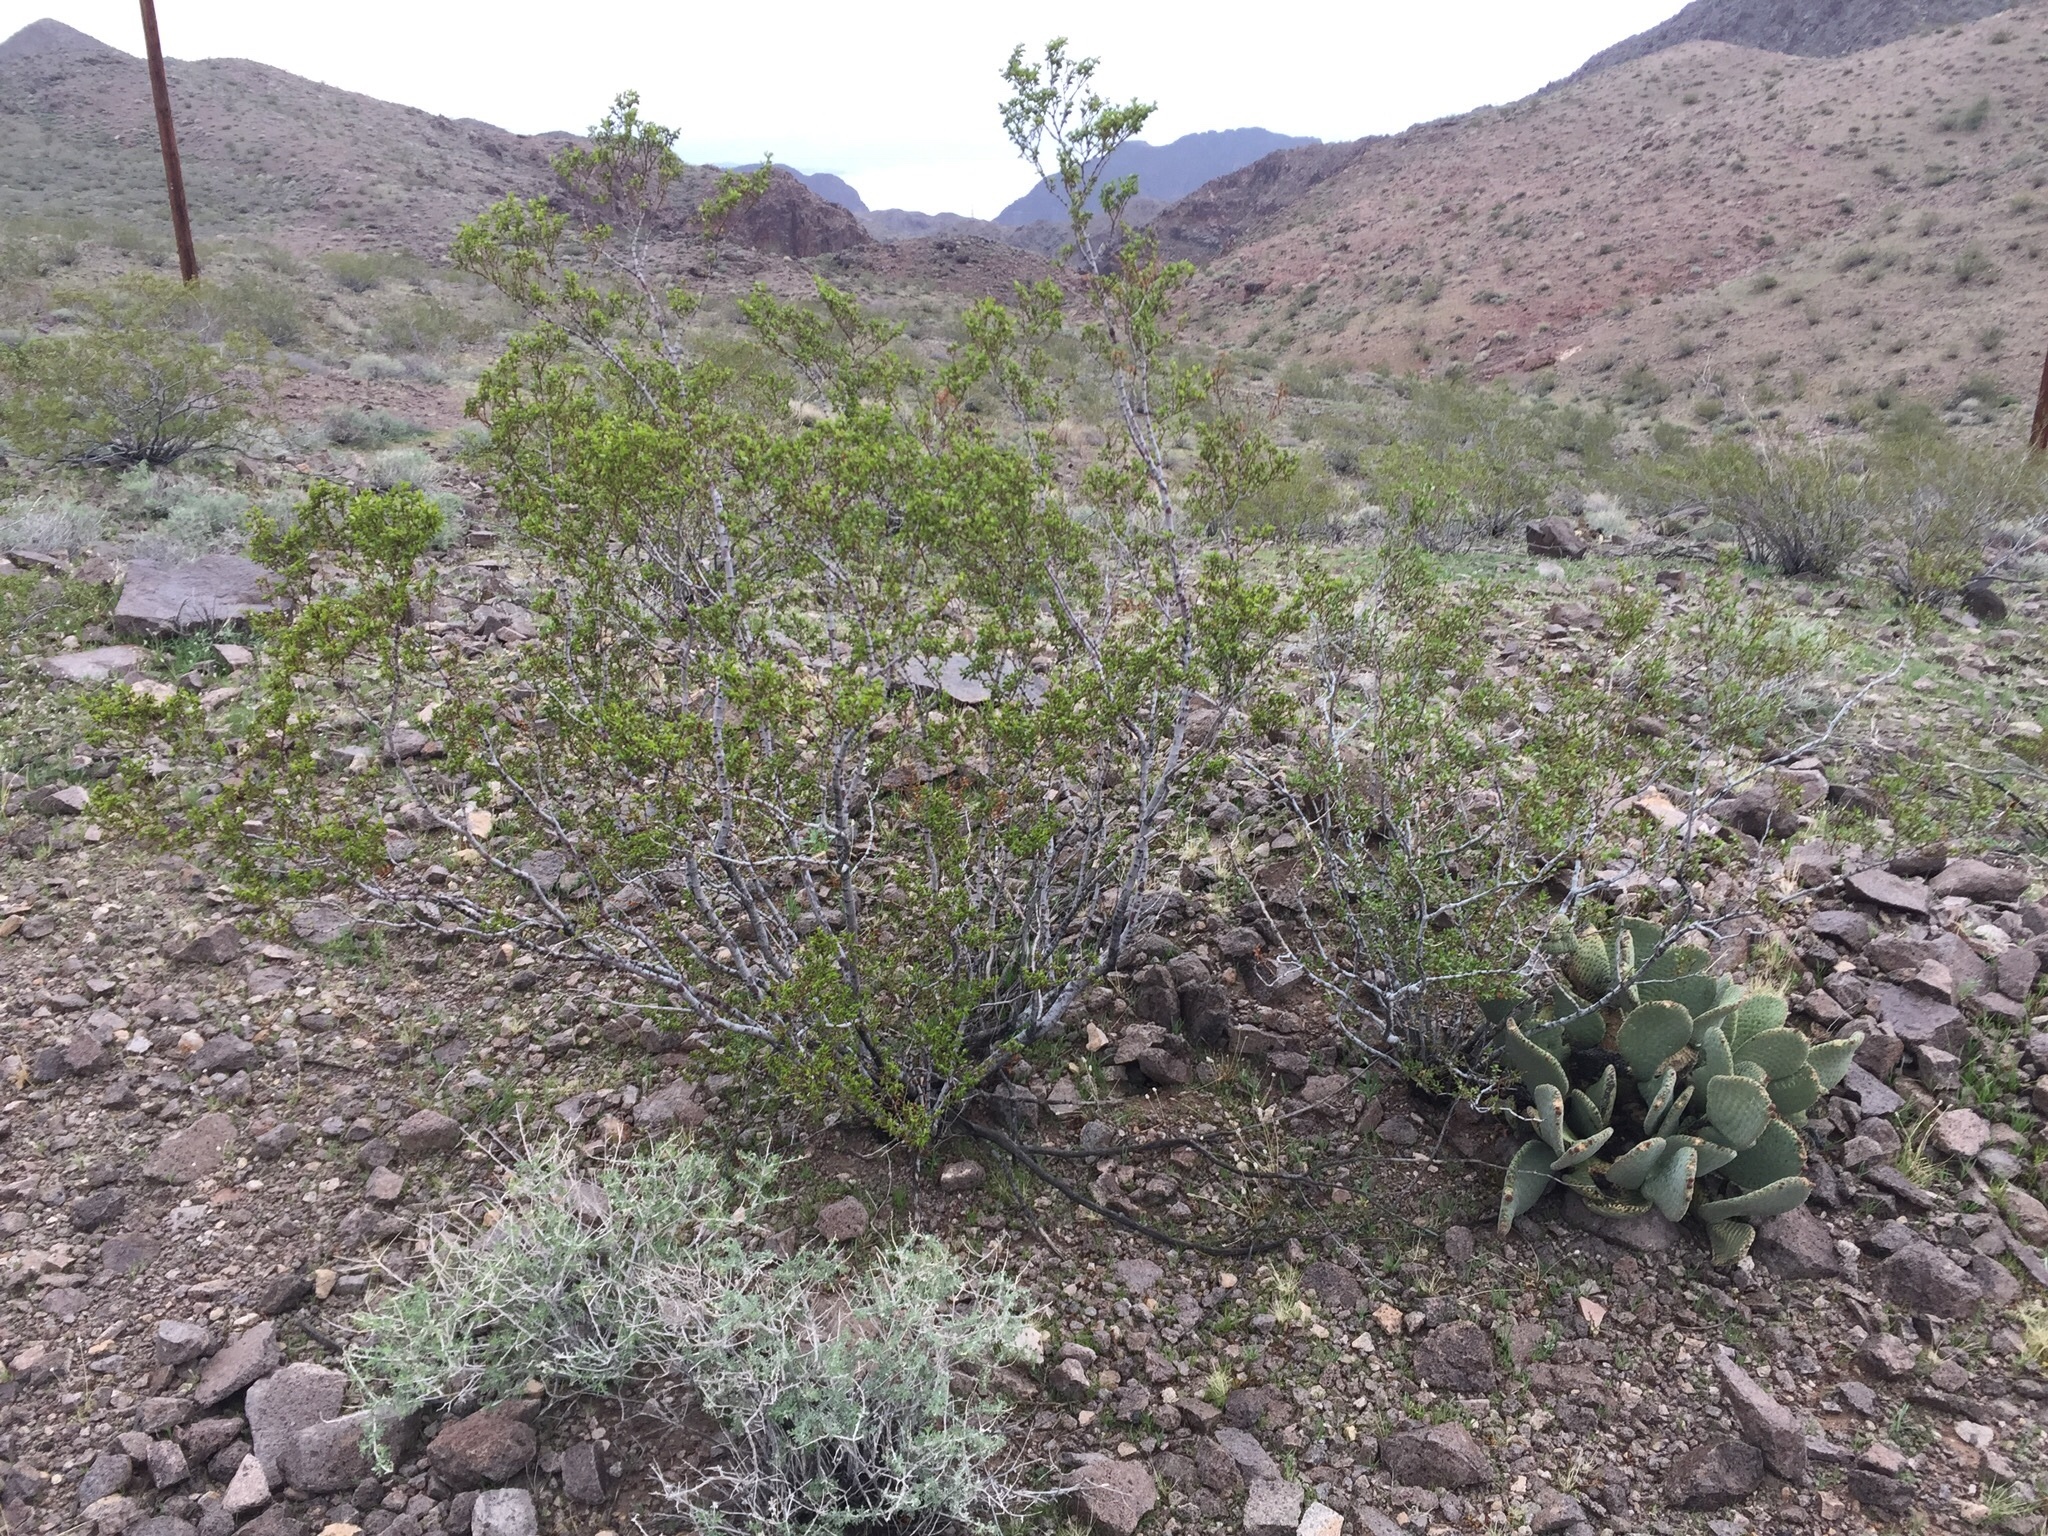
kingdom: Plantae
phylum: Tracheophyta
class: Magnoliopsida
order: Zygophyllales
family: Zygophyllaceae
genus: Larrea
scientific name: Larrea tridentata
